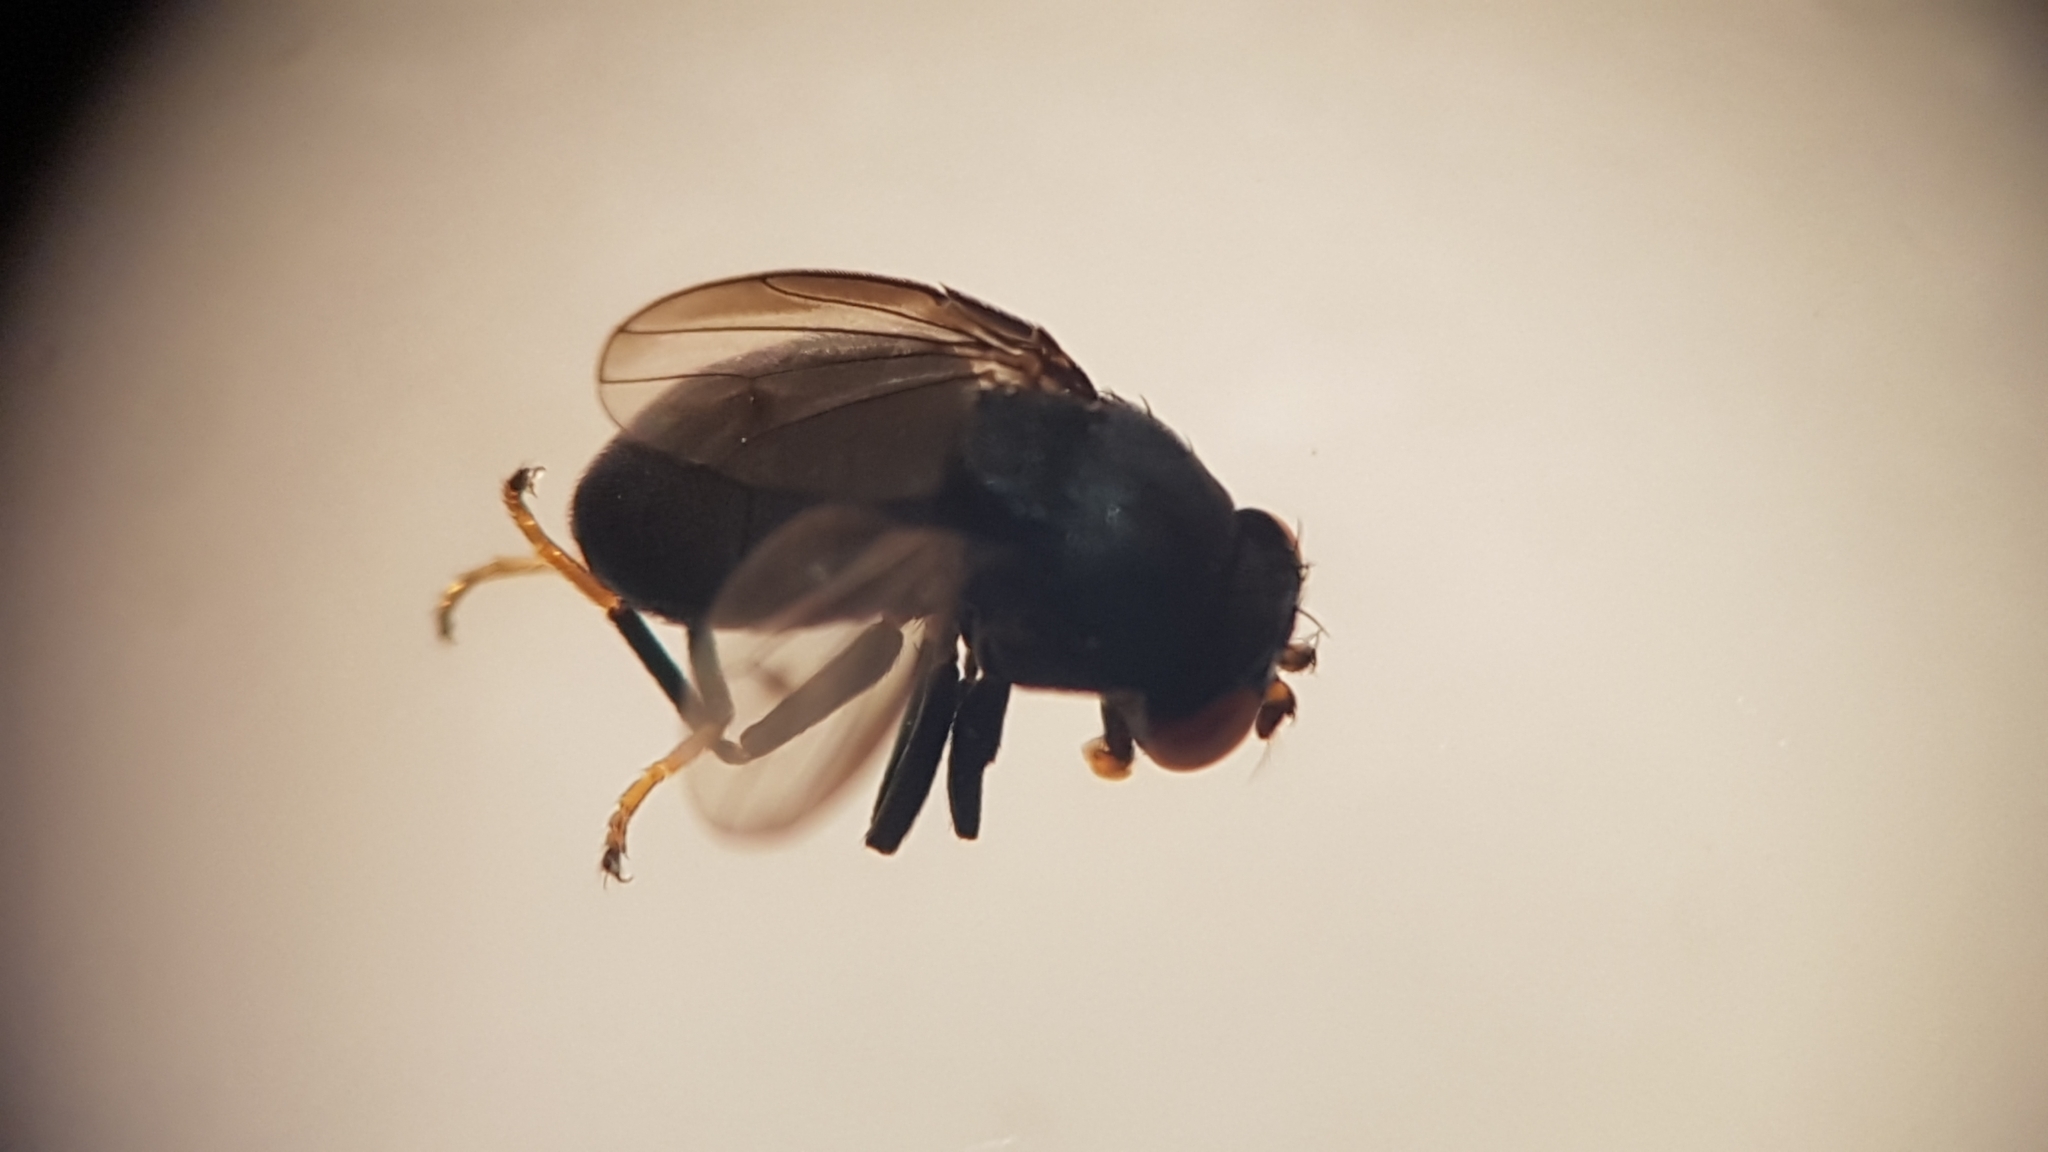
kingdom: Animalia
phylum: Arthropoda
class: Insecta
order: Diptera
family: Ephydridae
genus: Discomyza
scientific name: Discomyza incurva
